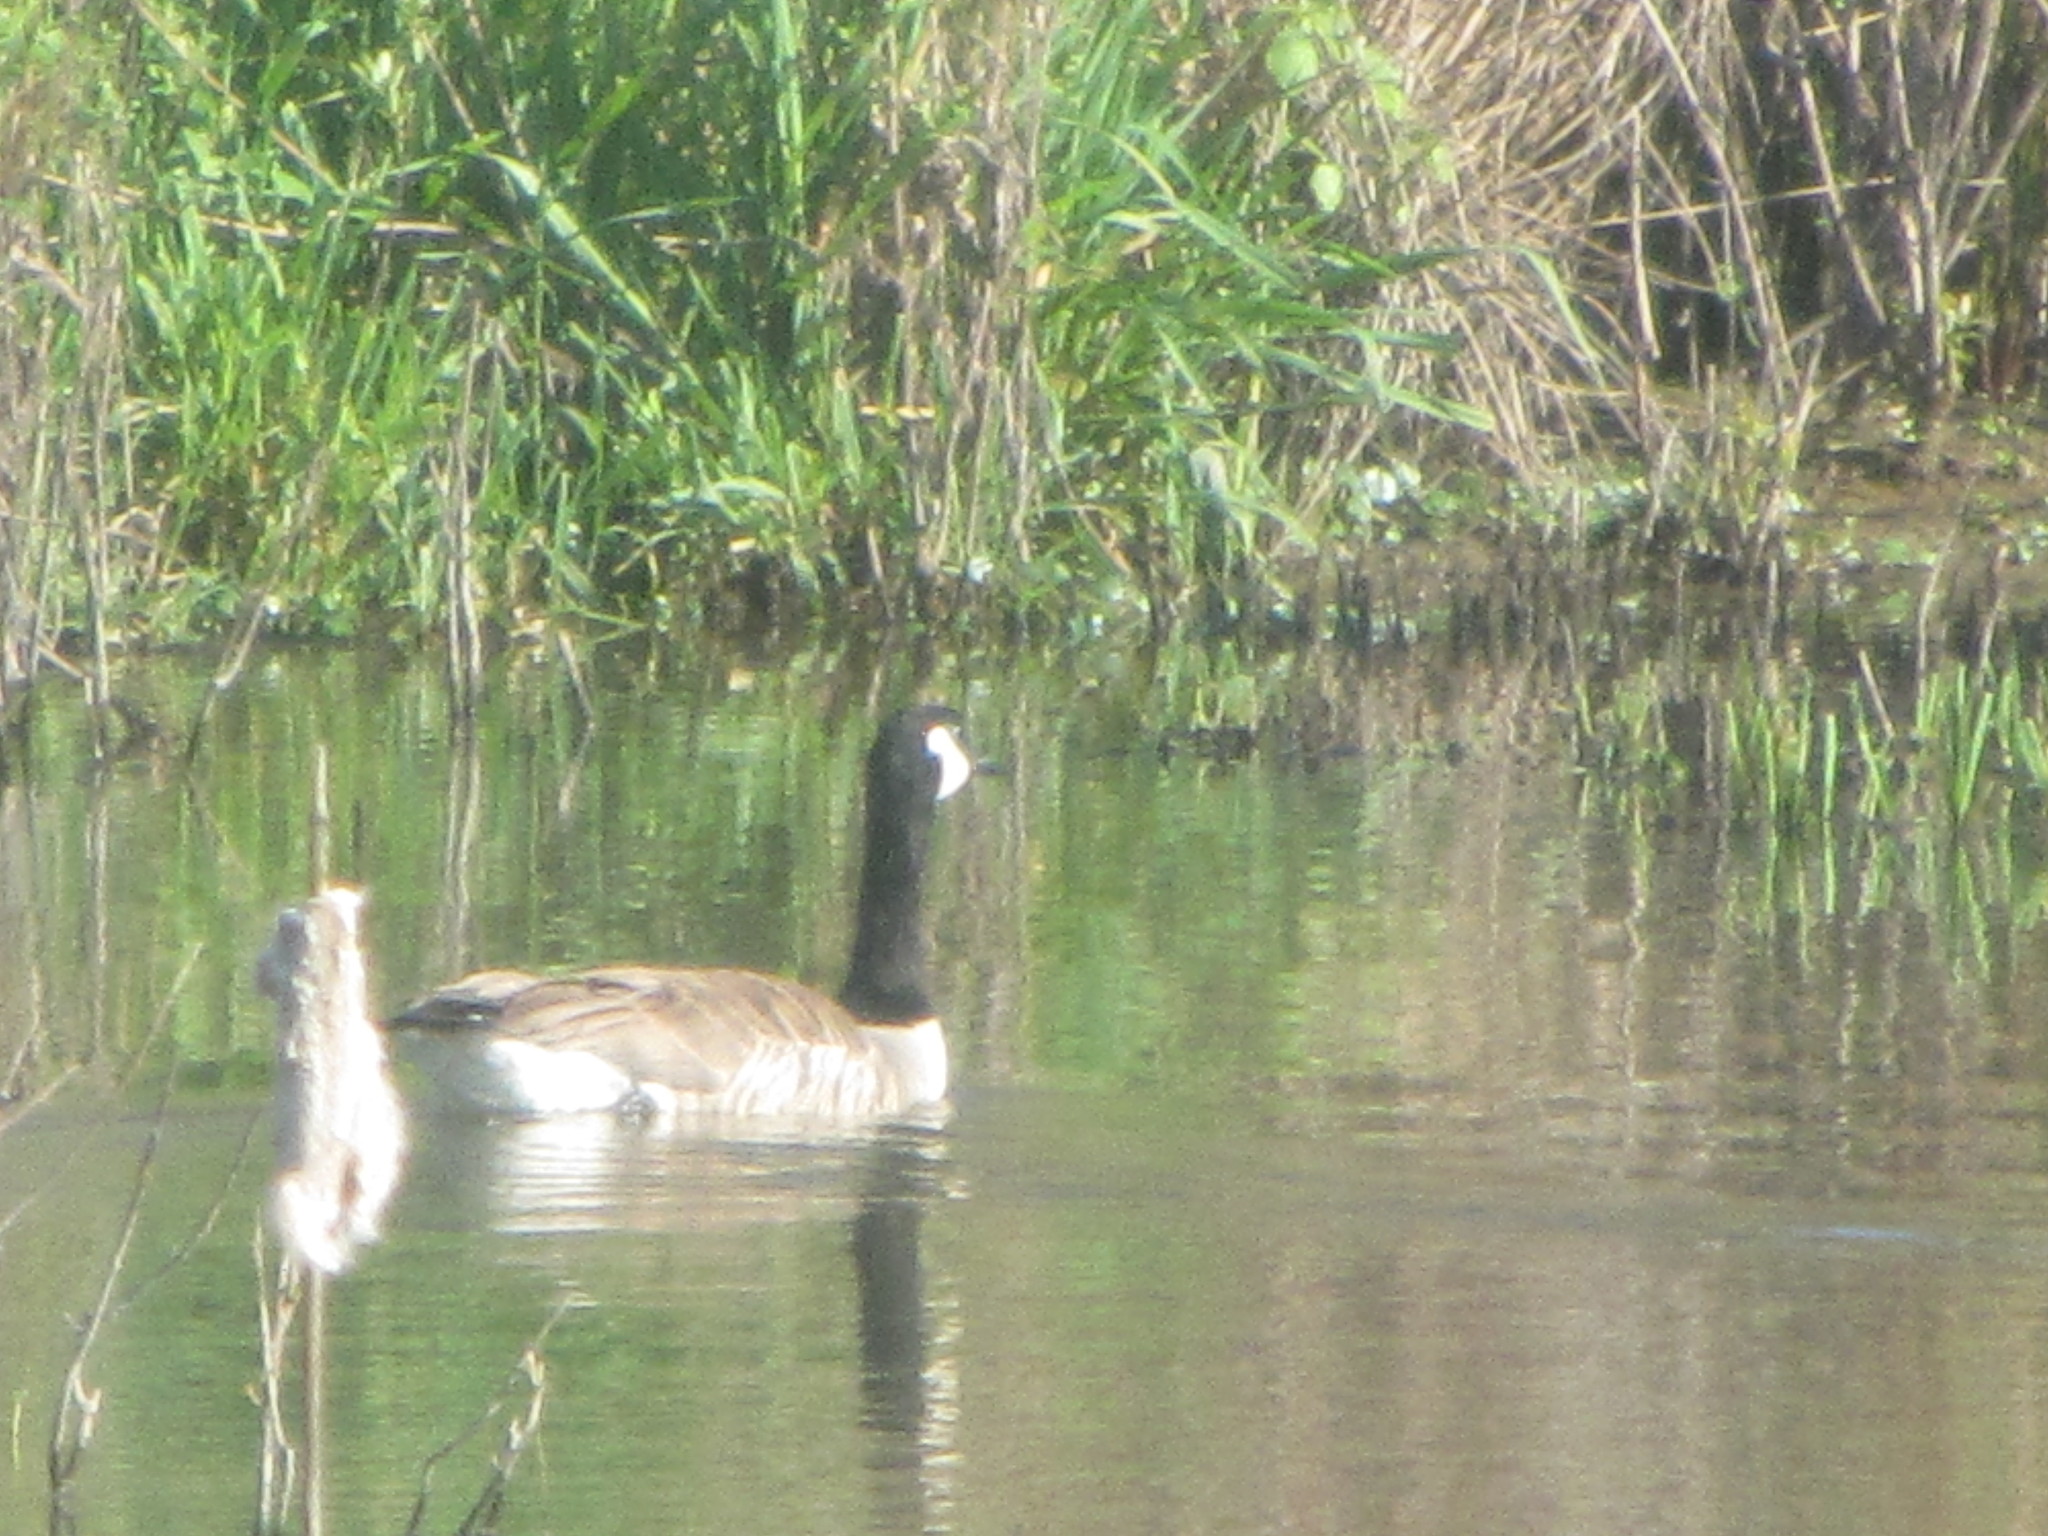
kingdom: Animalia
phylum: Chordata
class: Aves
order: Anseriformes
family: Anatidae
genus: Branta
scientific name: Branta canadensis
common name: Canada goose
